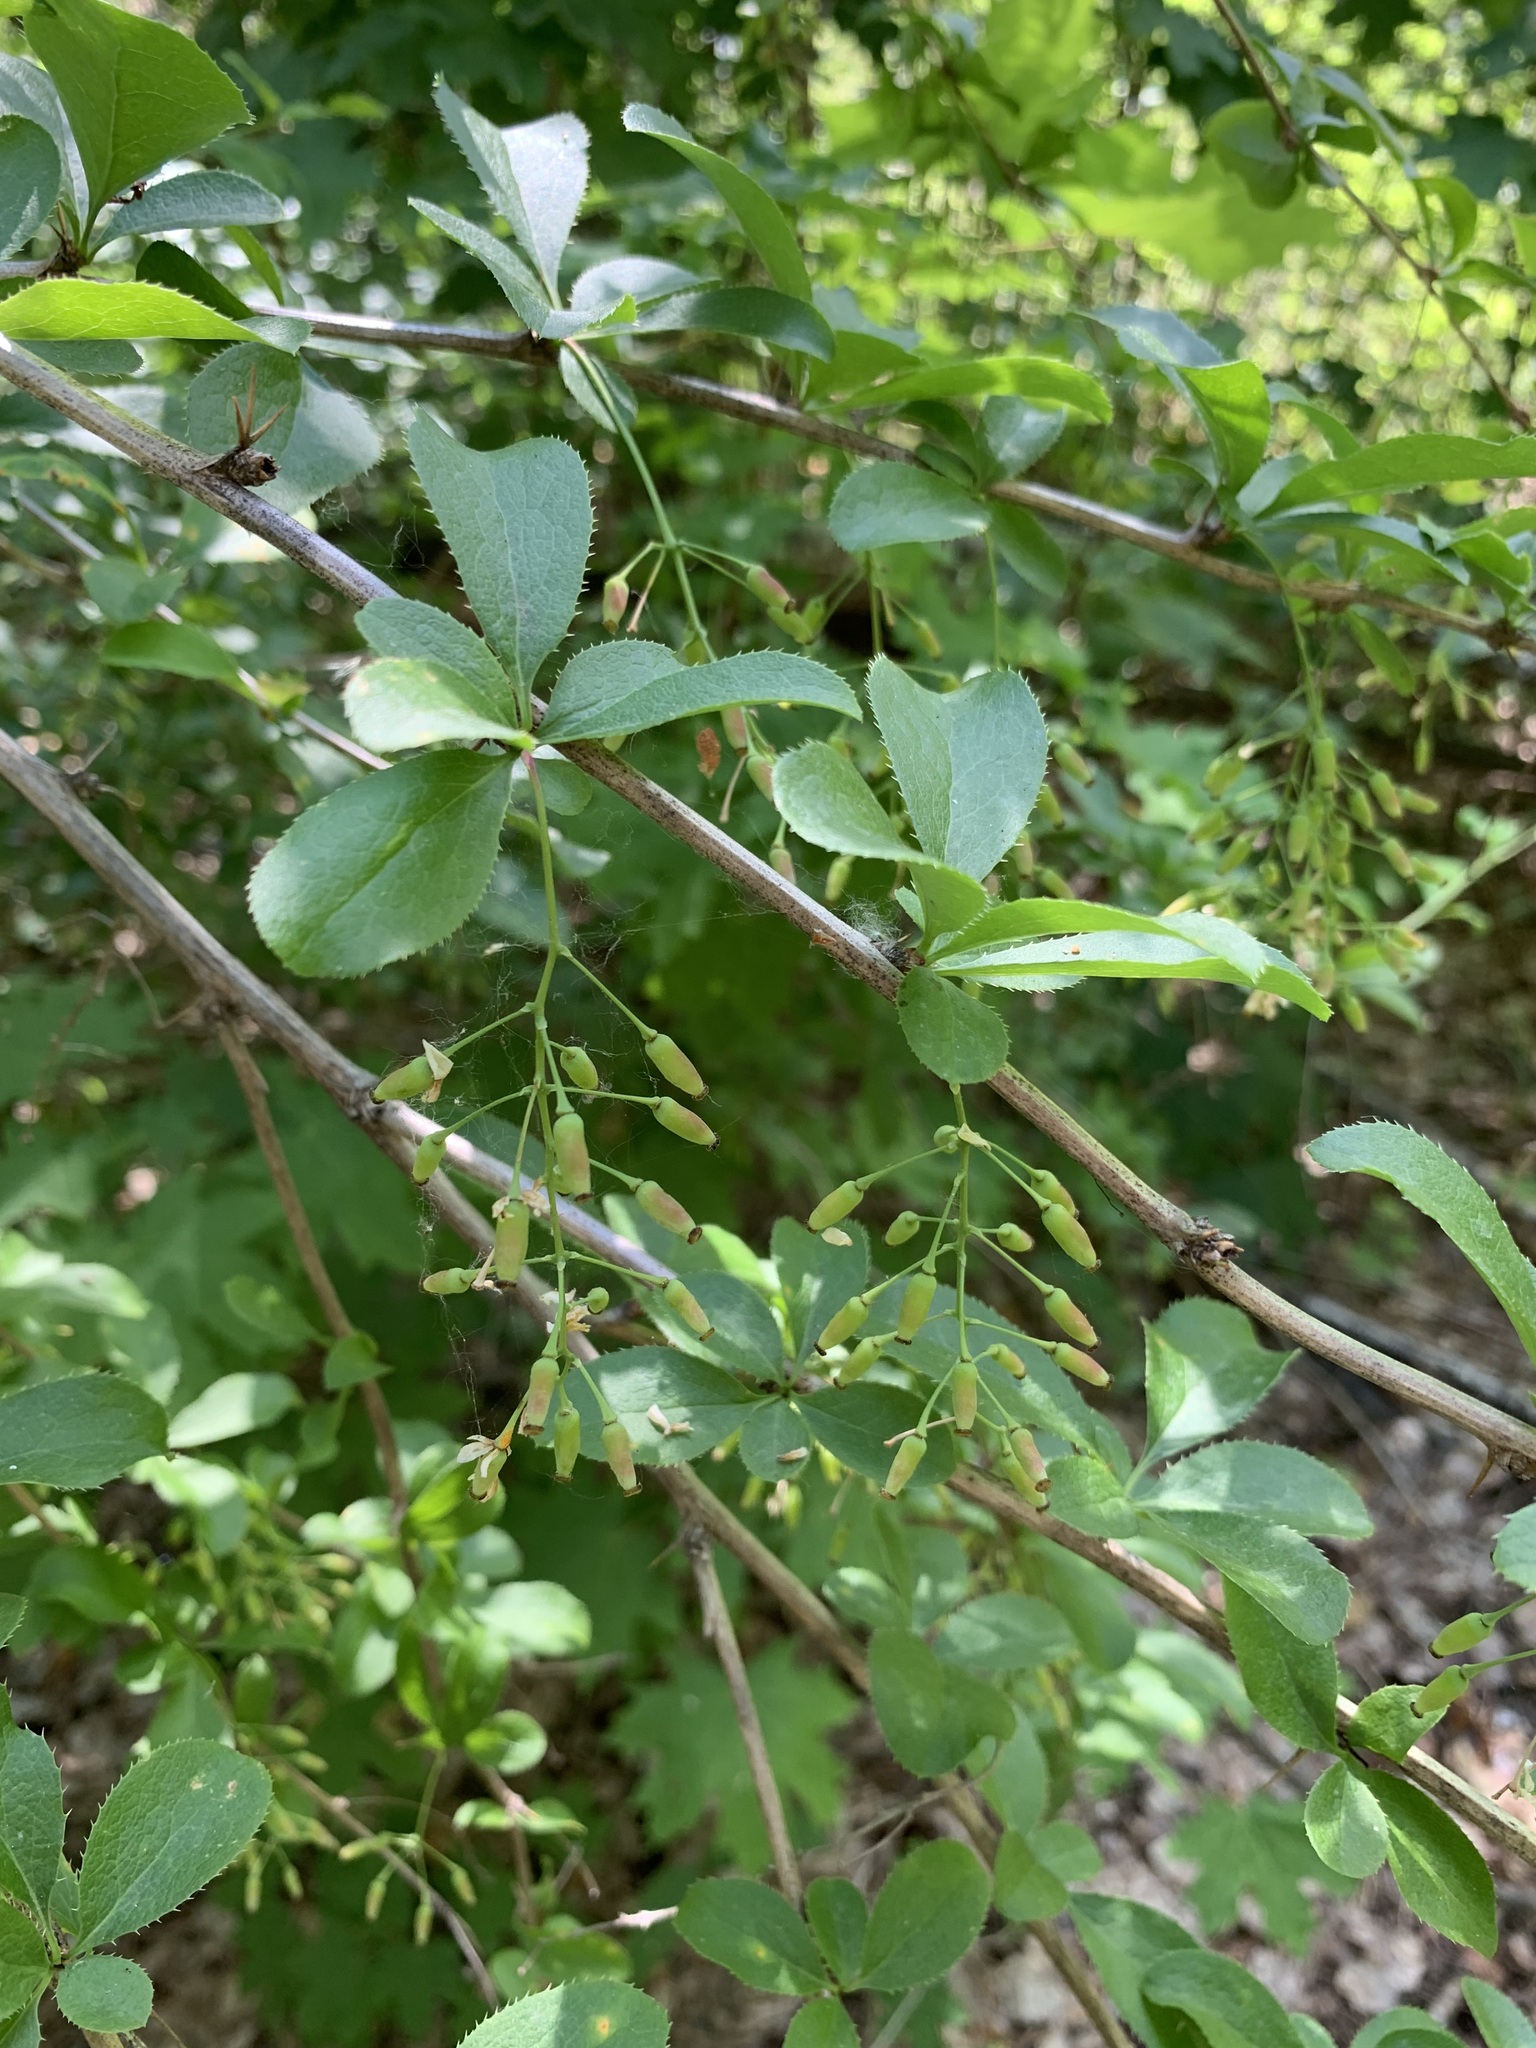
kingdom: Plantae
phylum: Tracheophyta
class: Magnoliopsida
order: Ranunculales
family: Berberidaceae
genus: Berberis
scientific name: Berberis vulgaris
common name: Barberry
